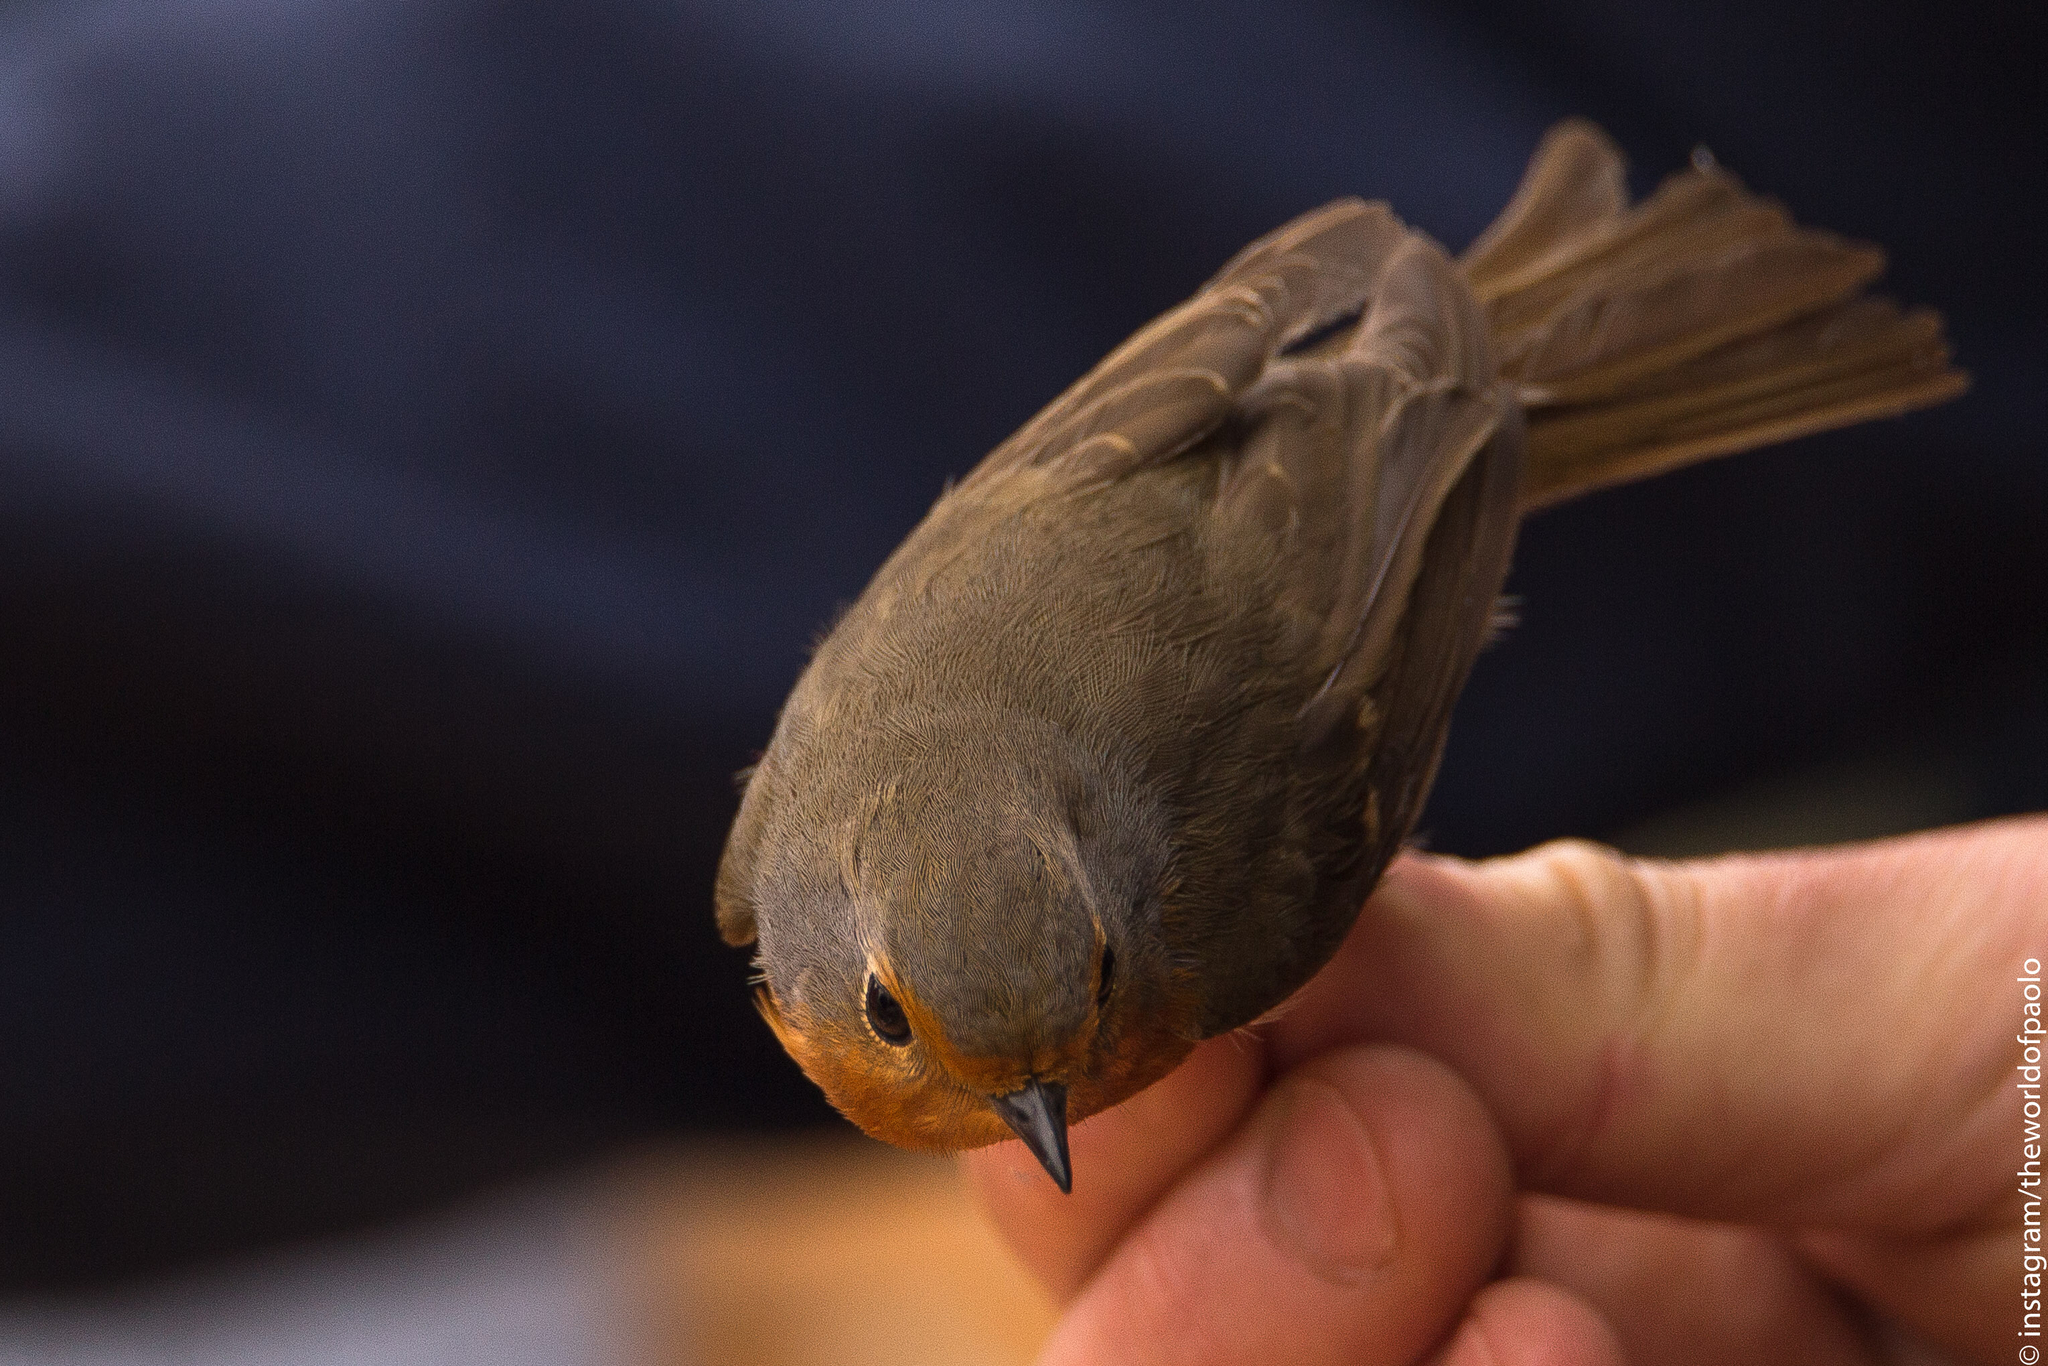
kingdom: Animalia
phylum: Chordata
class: Aves
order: Passeriformes
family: Muscicapidae
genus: Erithacus
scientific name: Erithacus rubecula
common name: European robin
